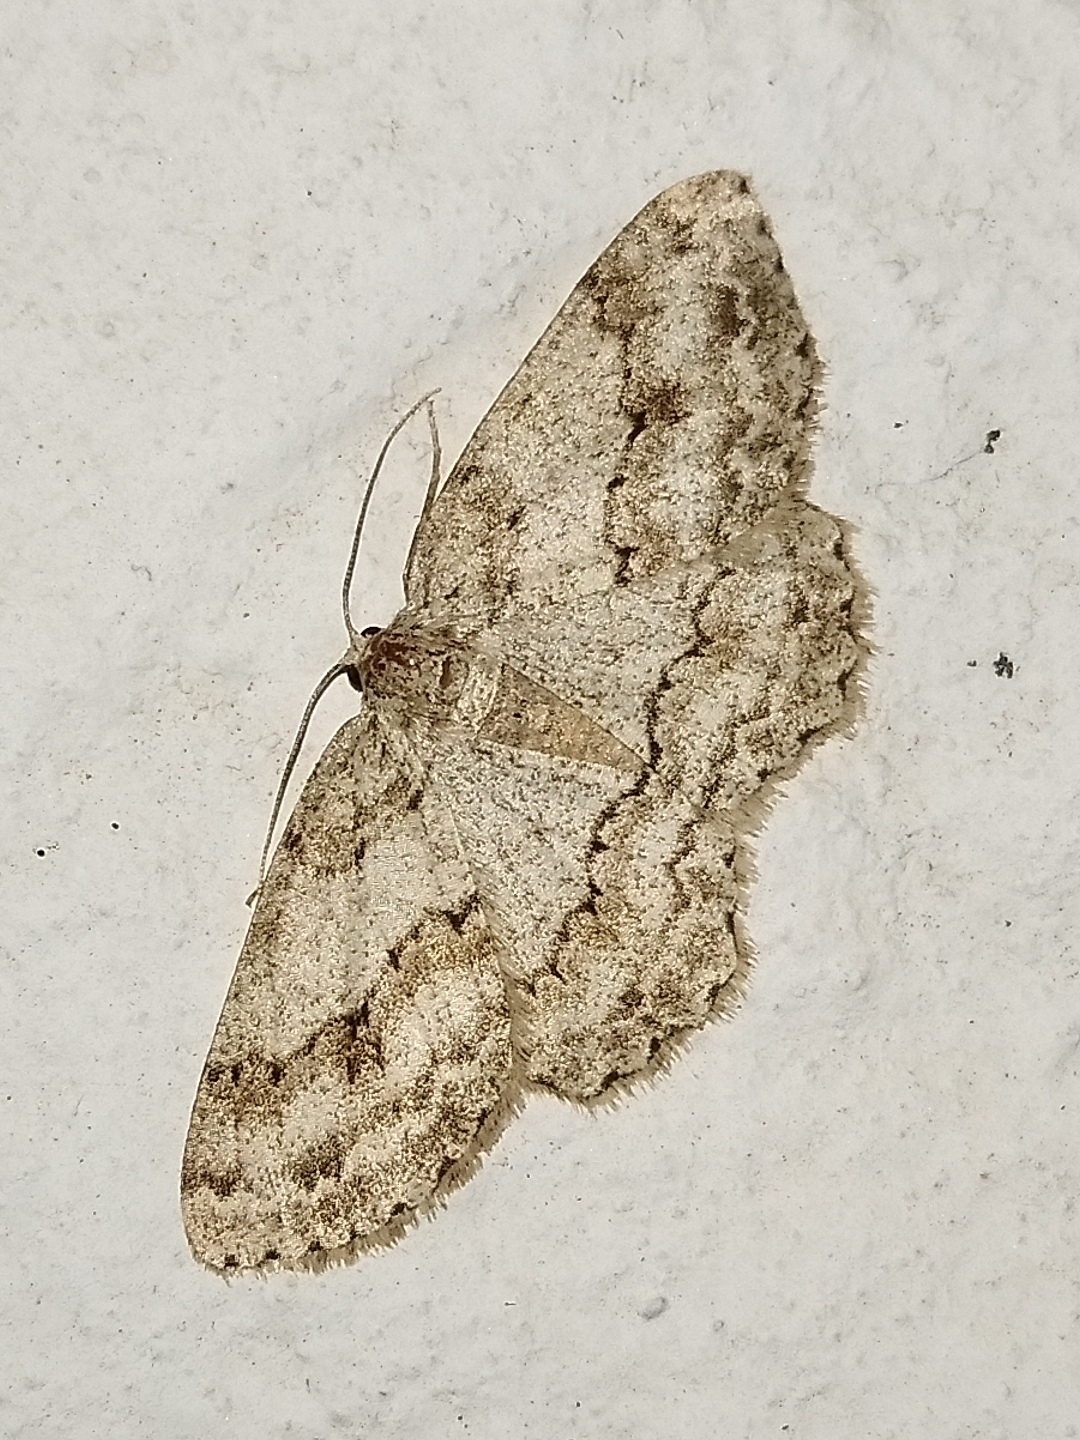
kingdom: Animalia
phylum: Arthropoda
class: Insecta
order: Lepidoptera
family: Geometridae
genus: Ectropis
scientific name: Ectropis crepuscularia
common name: Engrailed
